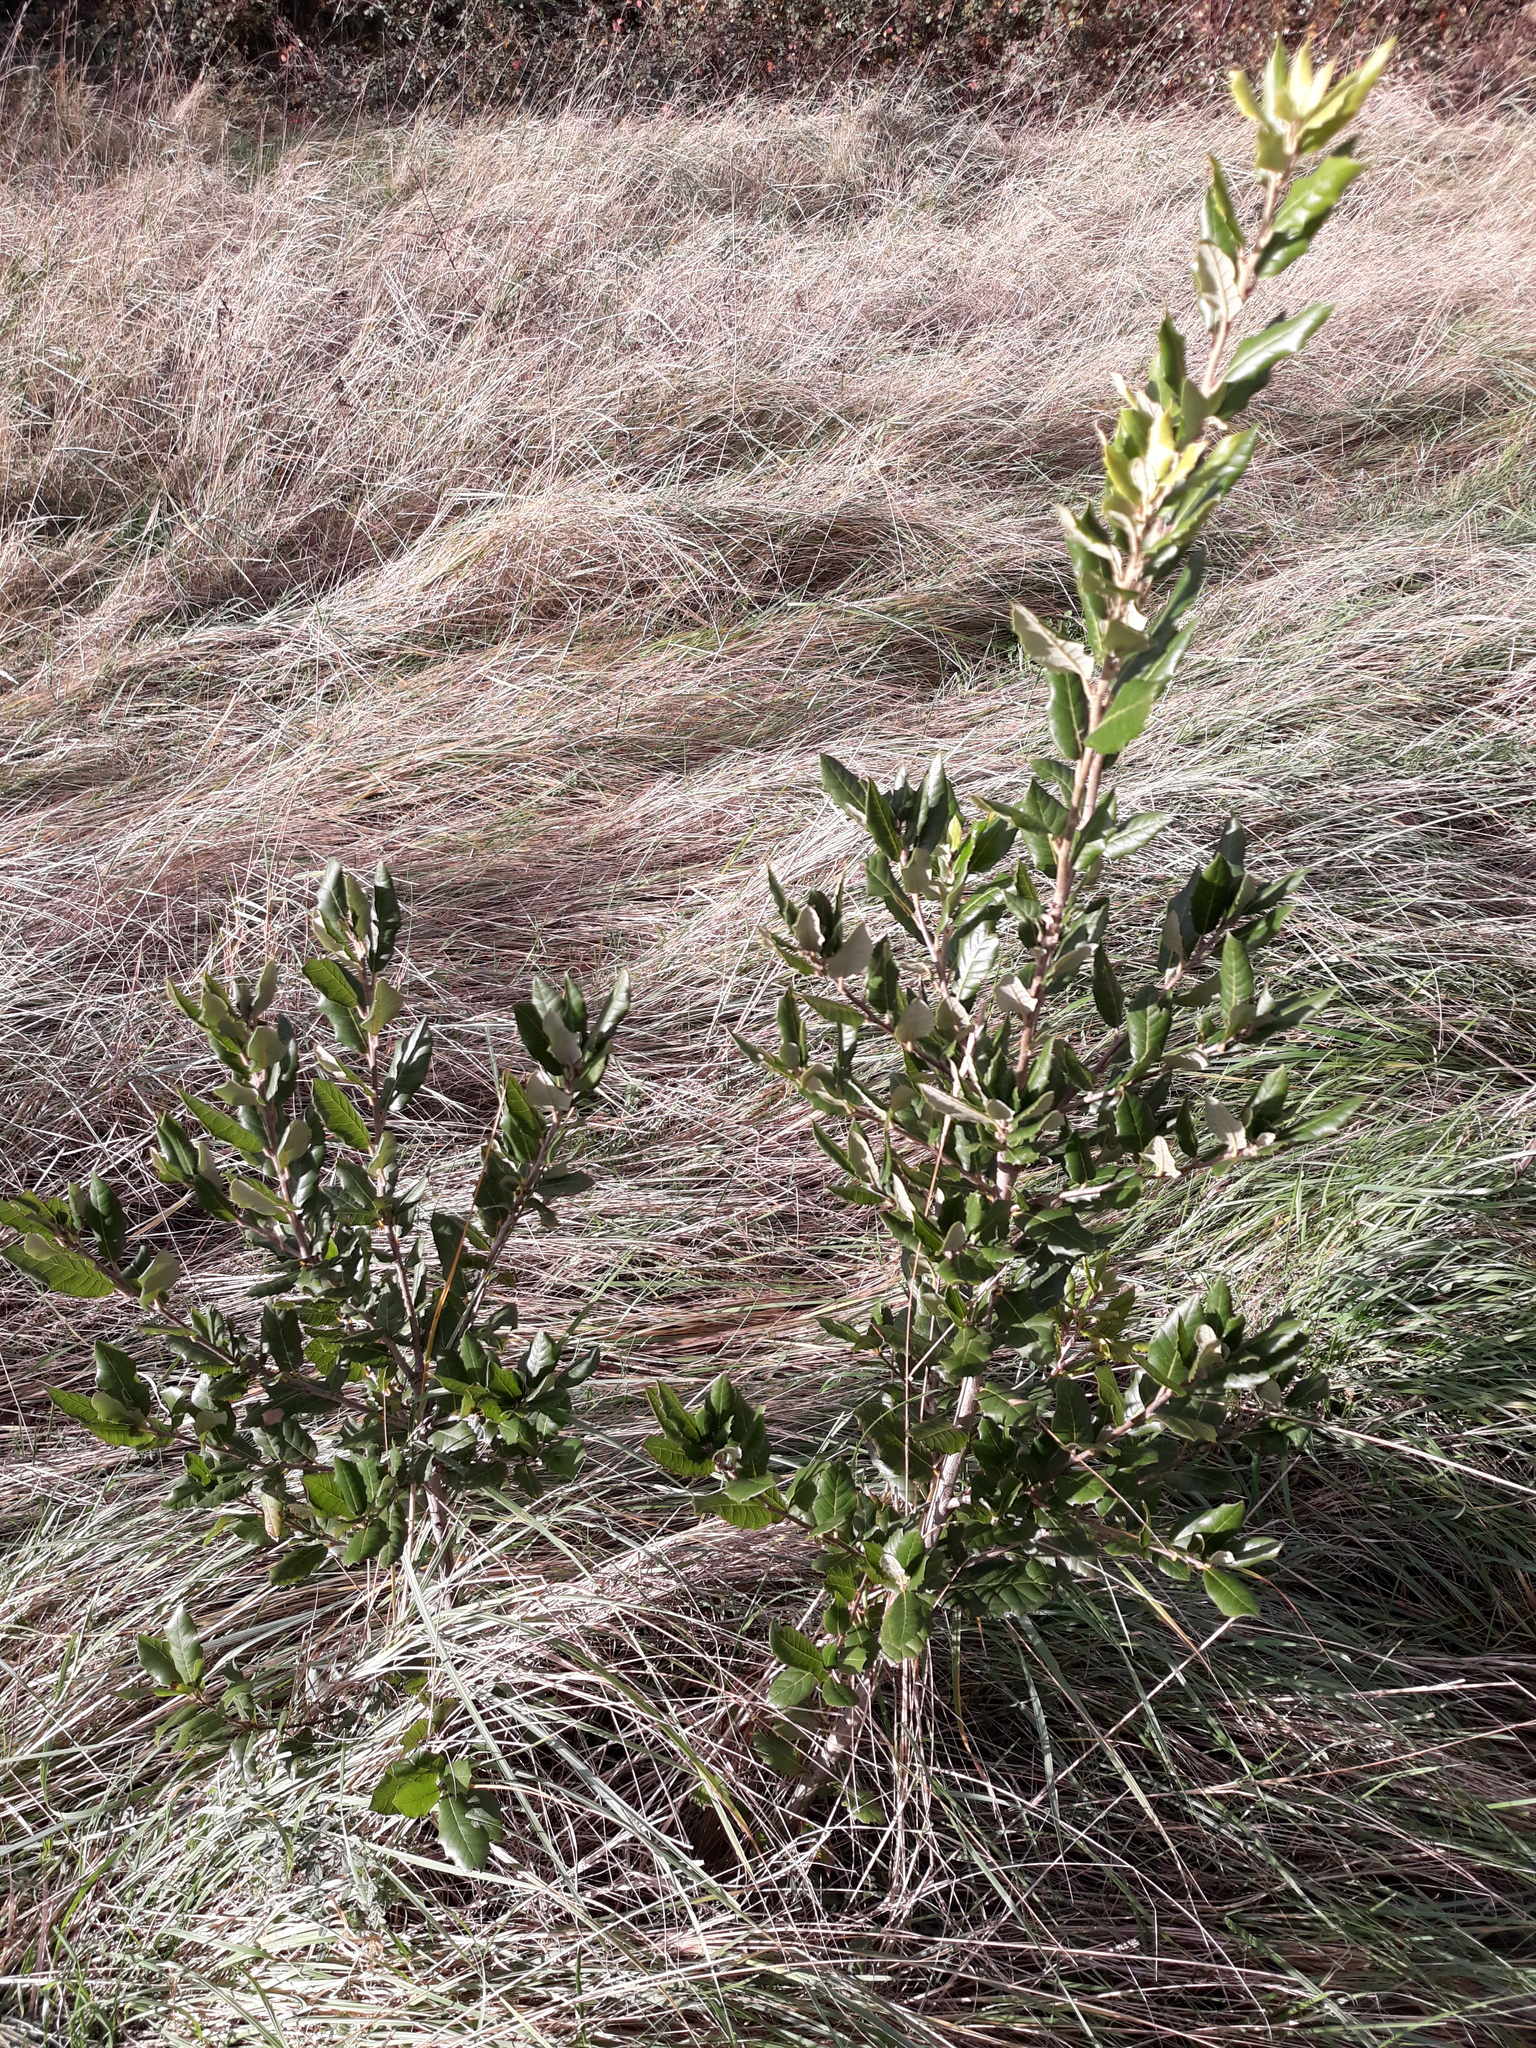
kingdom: Plantae
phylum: Tracheophyta
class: Magnoliopsida
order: Fagales
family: Fagaceae
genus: Quercus
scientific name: Quercus ilex
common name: Evergreen oak
